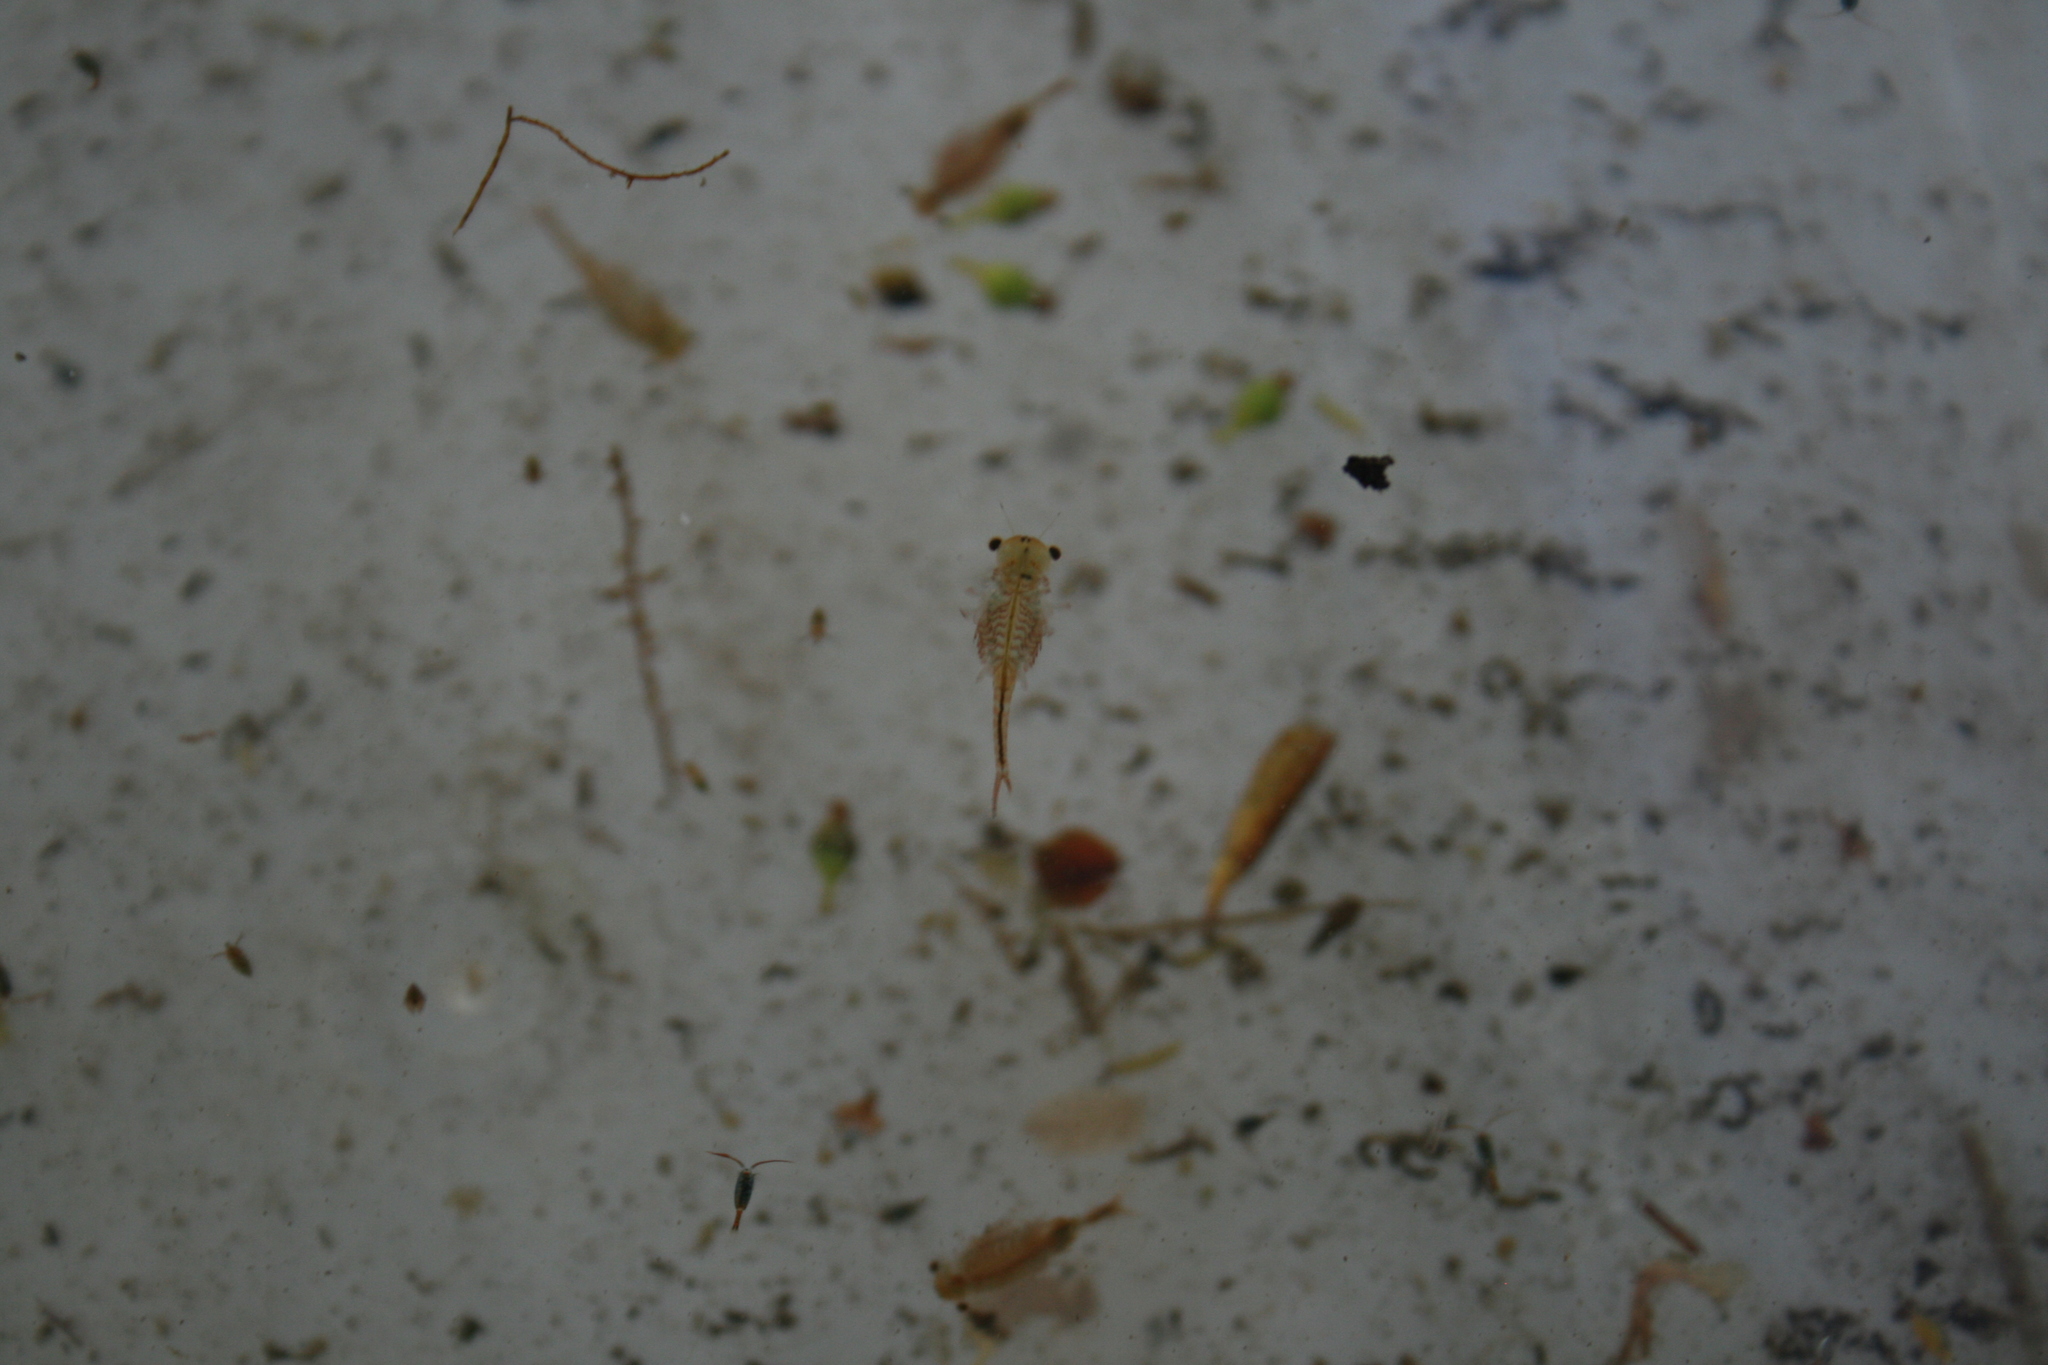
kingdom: Animalia
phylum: Arthropoda
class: Branchiopoda
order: Anostraca
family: Chirocephalidae
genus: Eubranchipus
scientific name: Eubranchipus grubii
